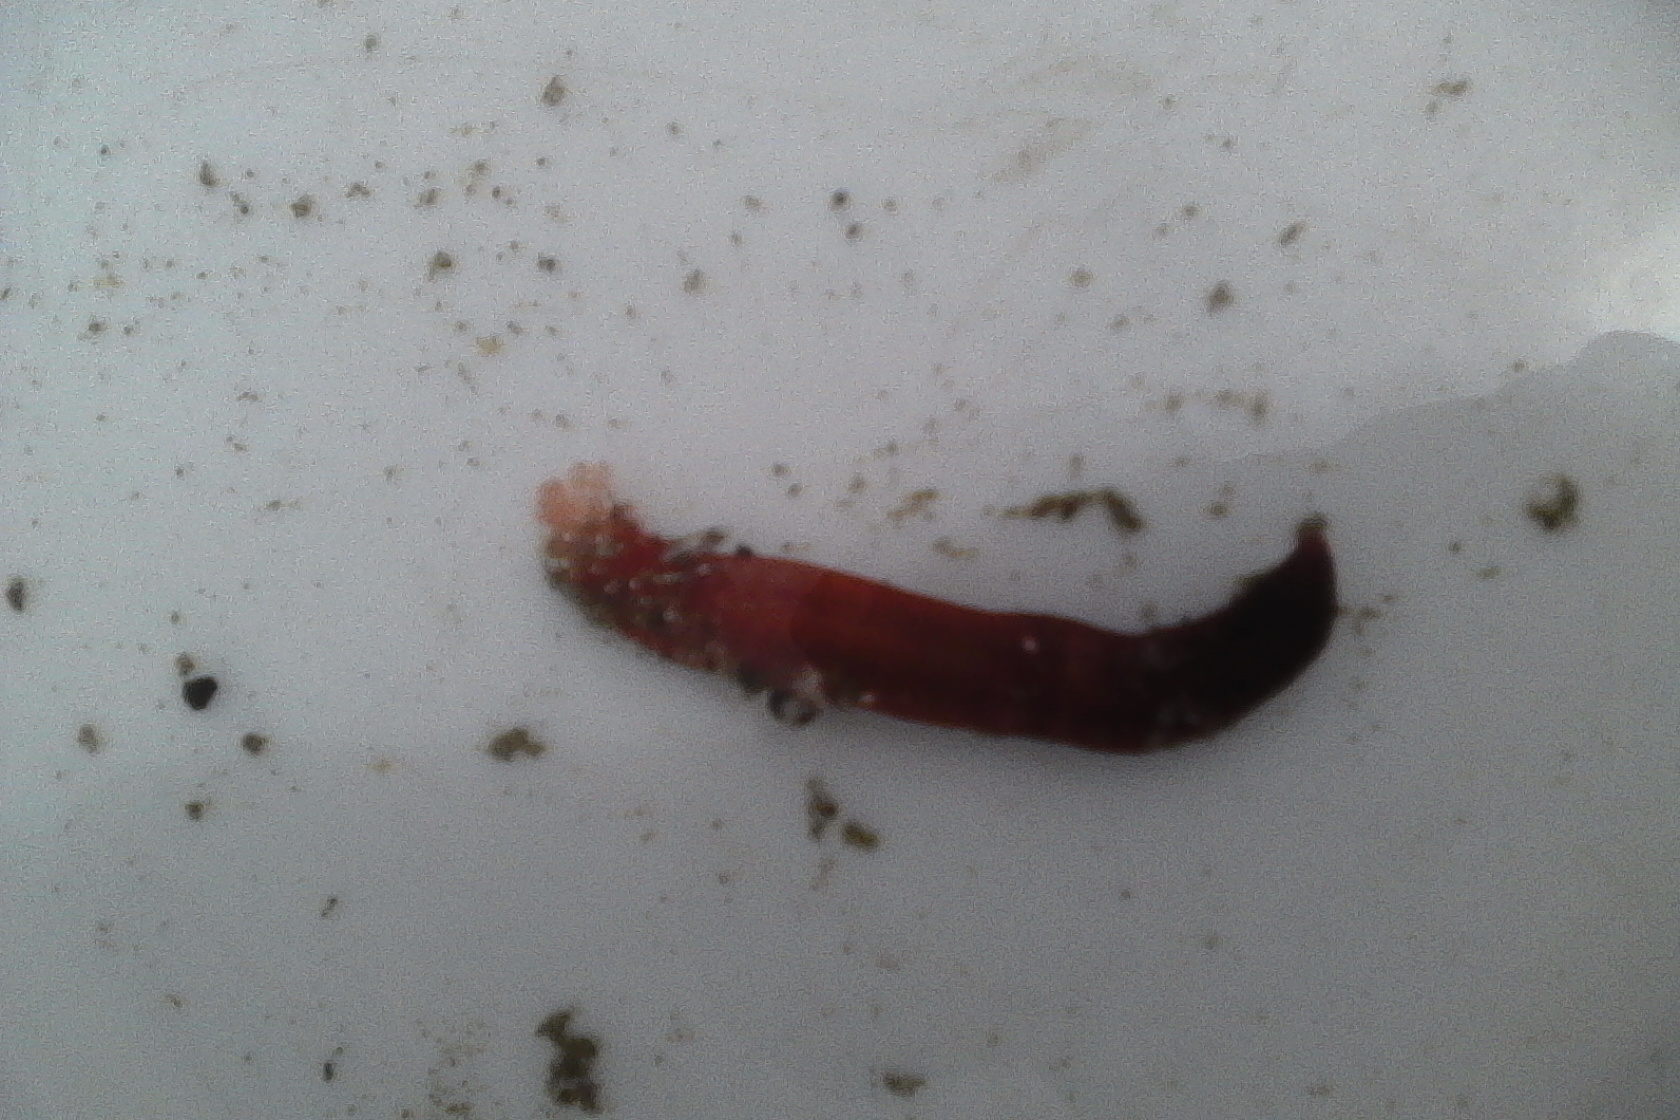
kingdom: Animalia
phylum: Echinodermata
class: Holothuroidea
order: Apodida
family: Chiridotidae
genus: Taeniogyrus
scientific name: Taeniogyrus dunedinensis
